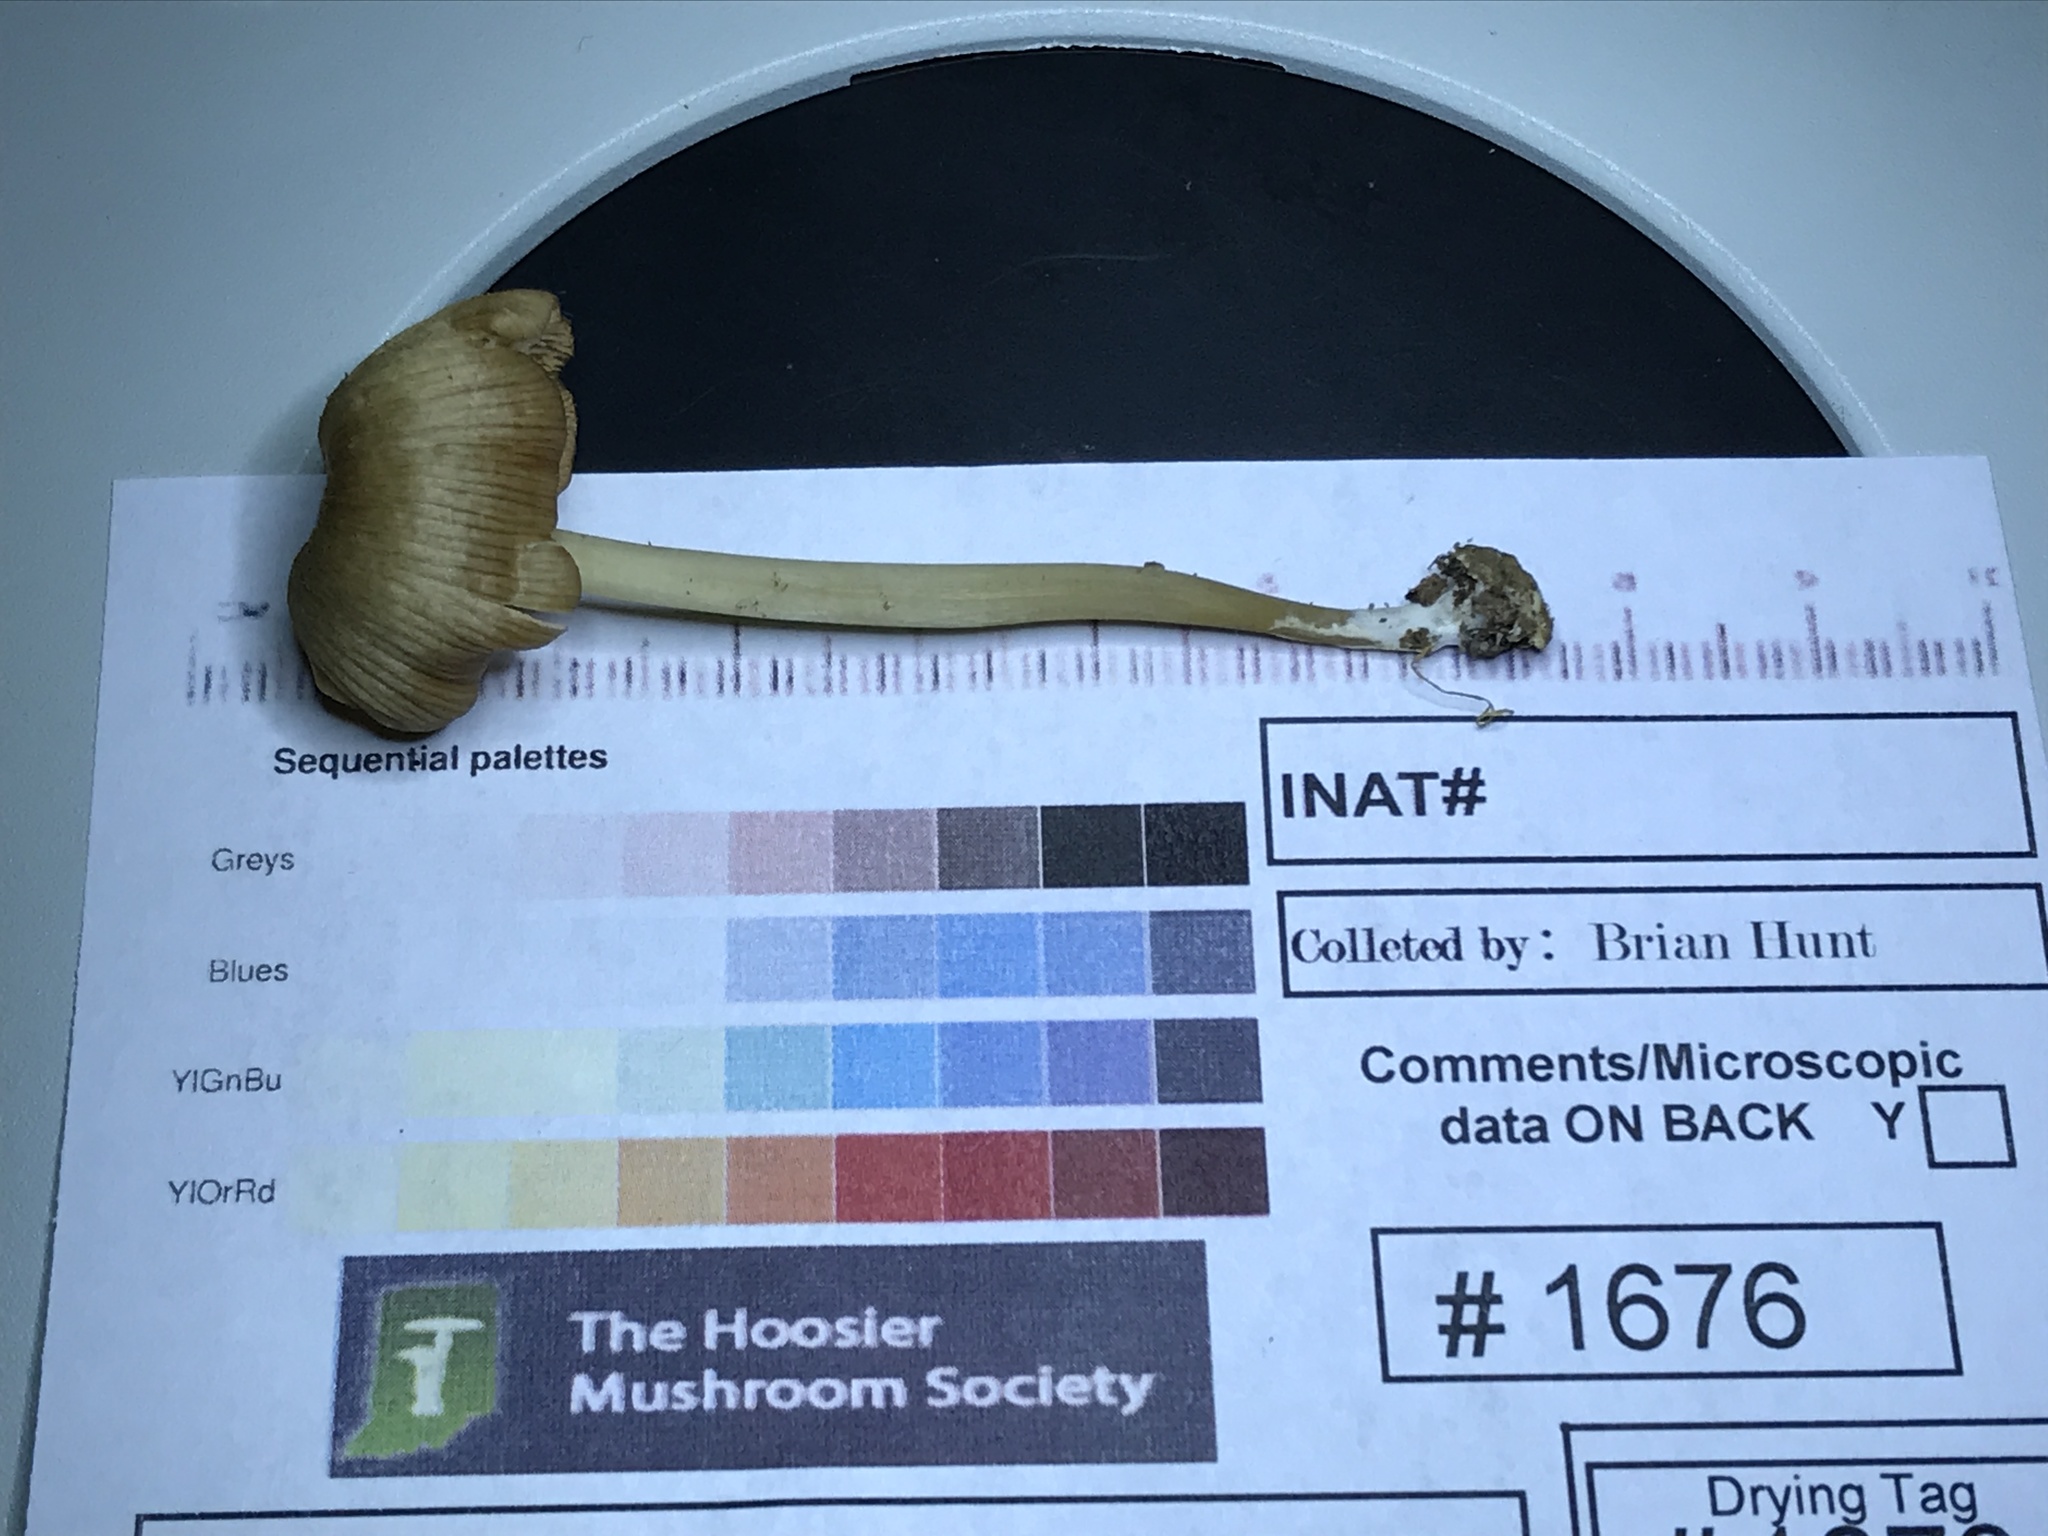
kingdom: Fungi
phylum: Basidiomycota
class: Agaricomycetes
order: Agaricales
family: Entolomataceae
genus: Entoloma
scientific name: Entoloma olivaceomarginatum
